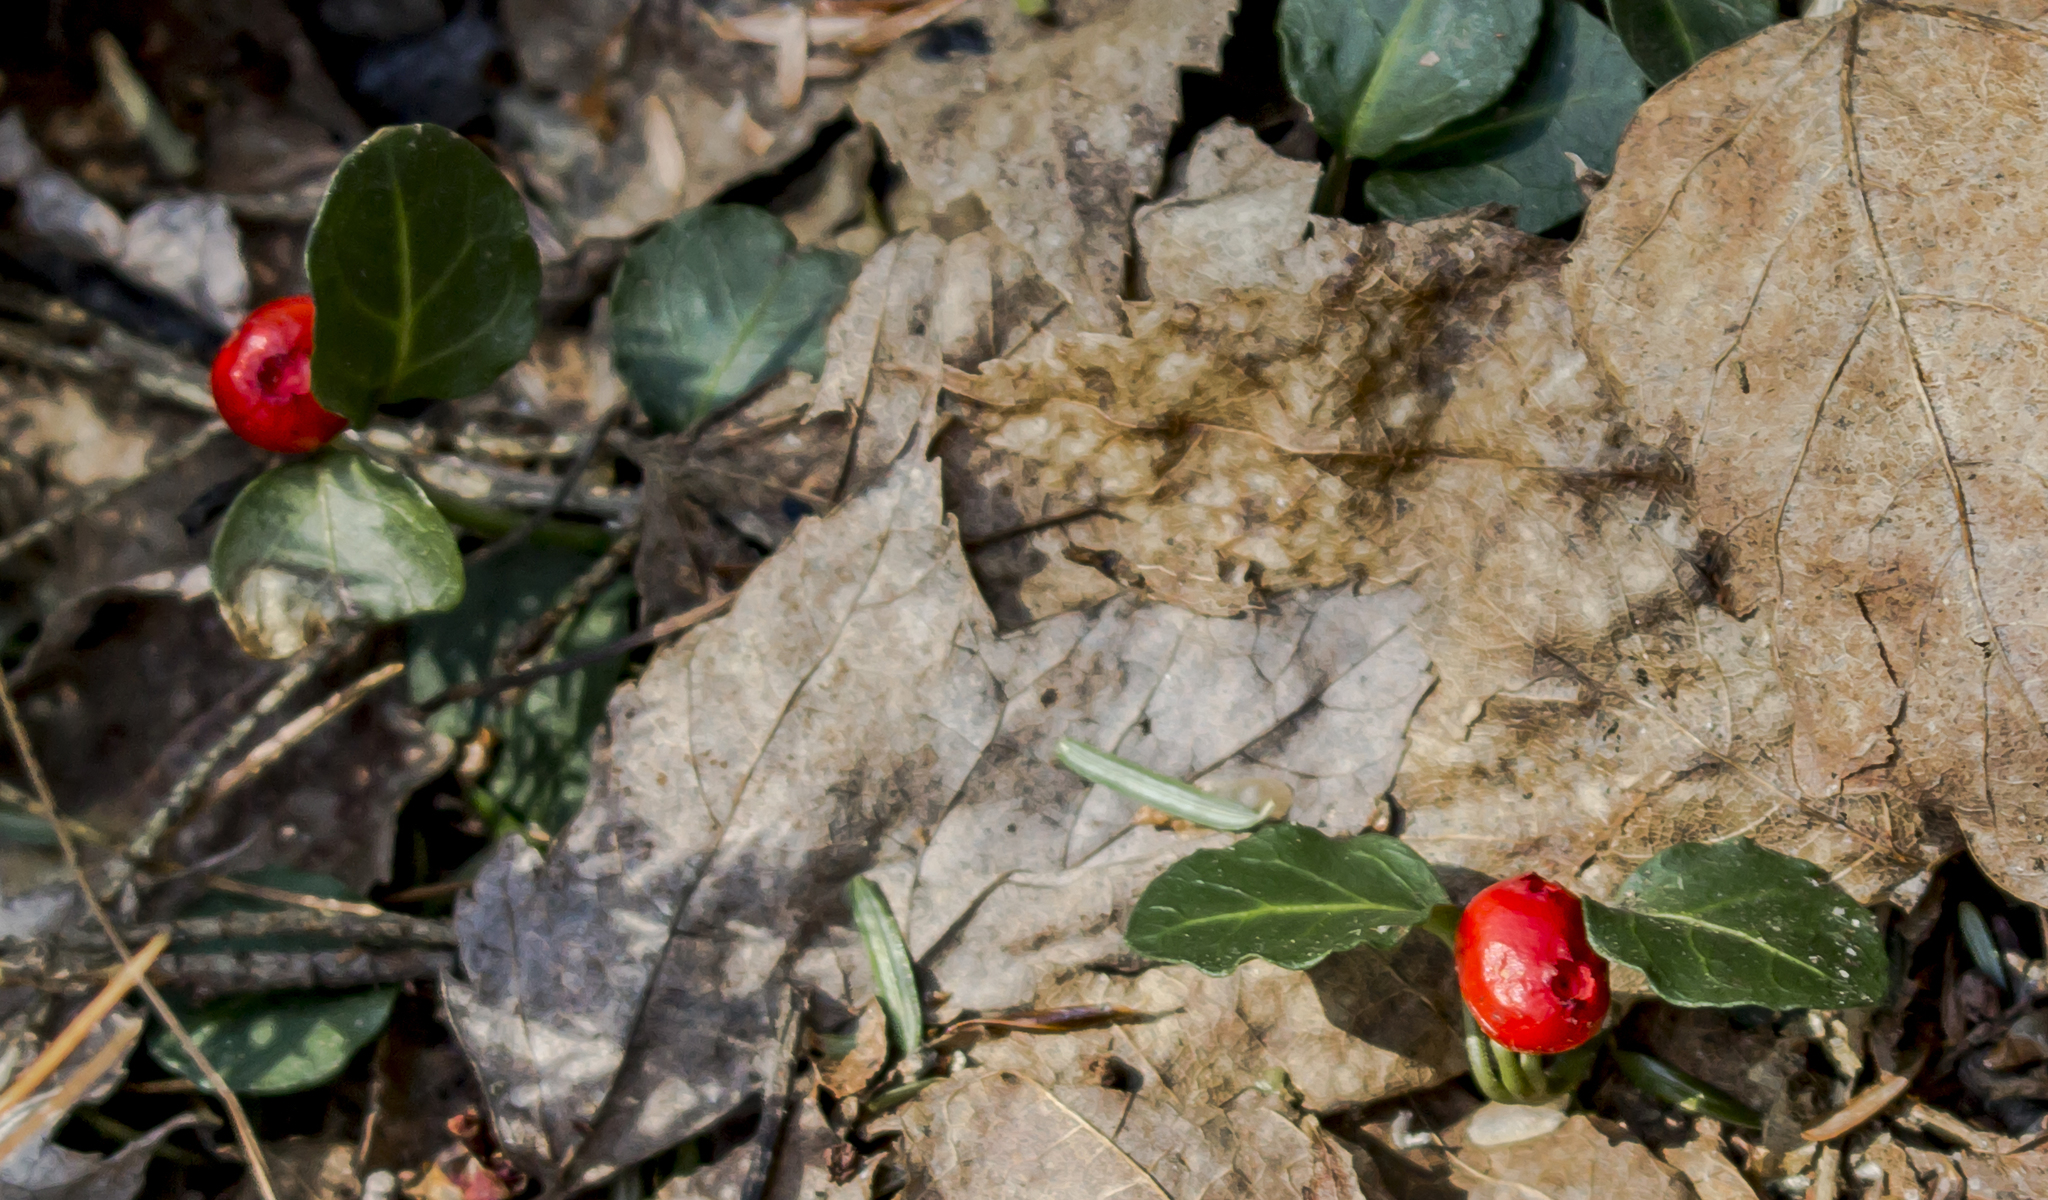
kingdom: Plantae
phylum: Tracheophyta
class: Magnoliopsida
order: Gentianales
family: Rubiaceae
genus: Mitchella
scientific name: Mitchella repens
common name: Partridge-berry
